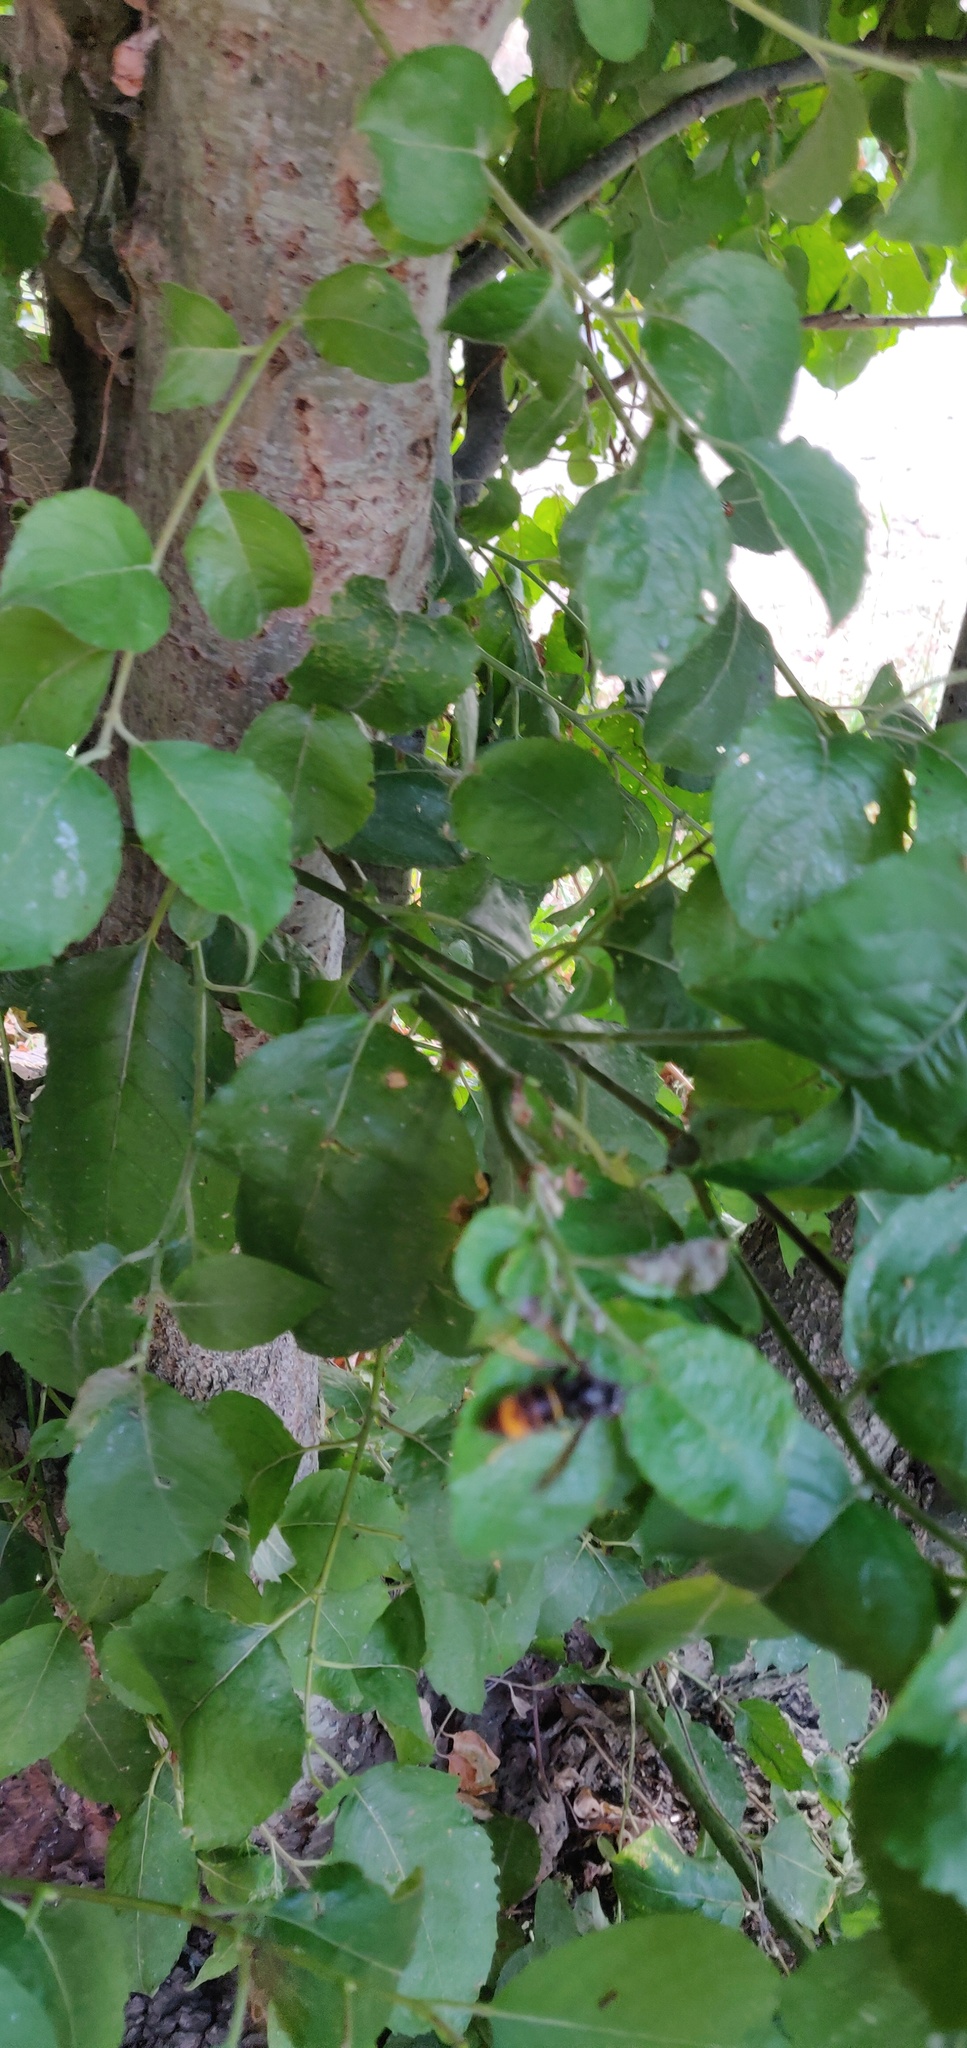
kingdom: Animalia
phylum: Arthropoda
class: Insecta
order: Hymenoptera
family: Vespidae
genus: Vespa
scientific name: Vespa velutina
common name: Asian hornet
